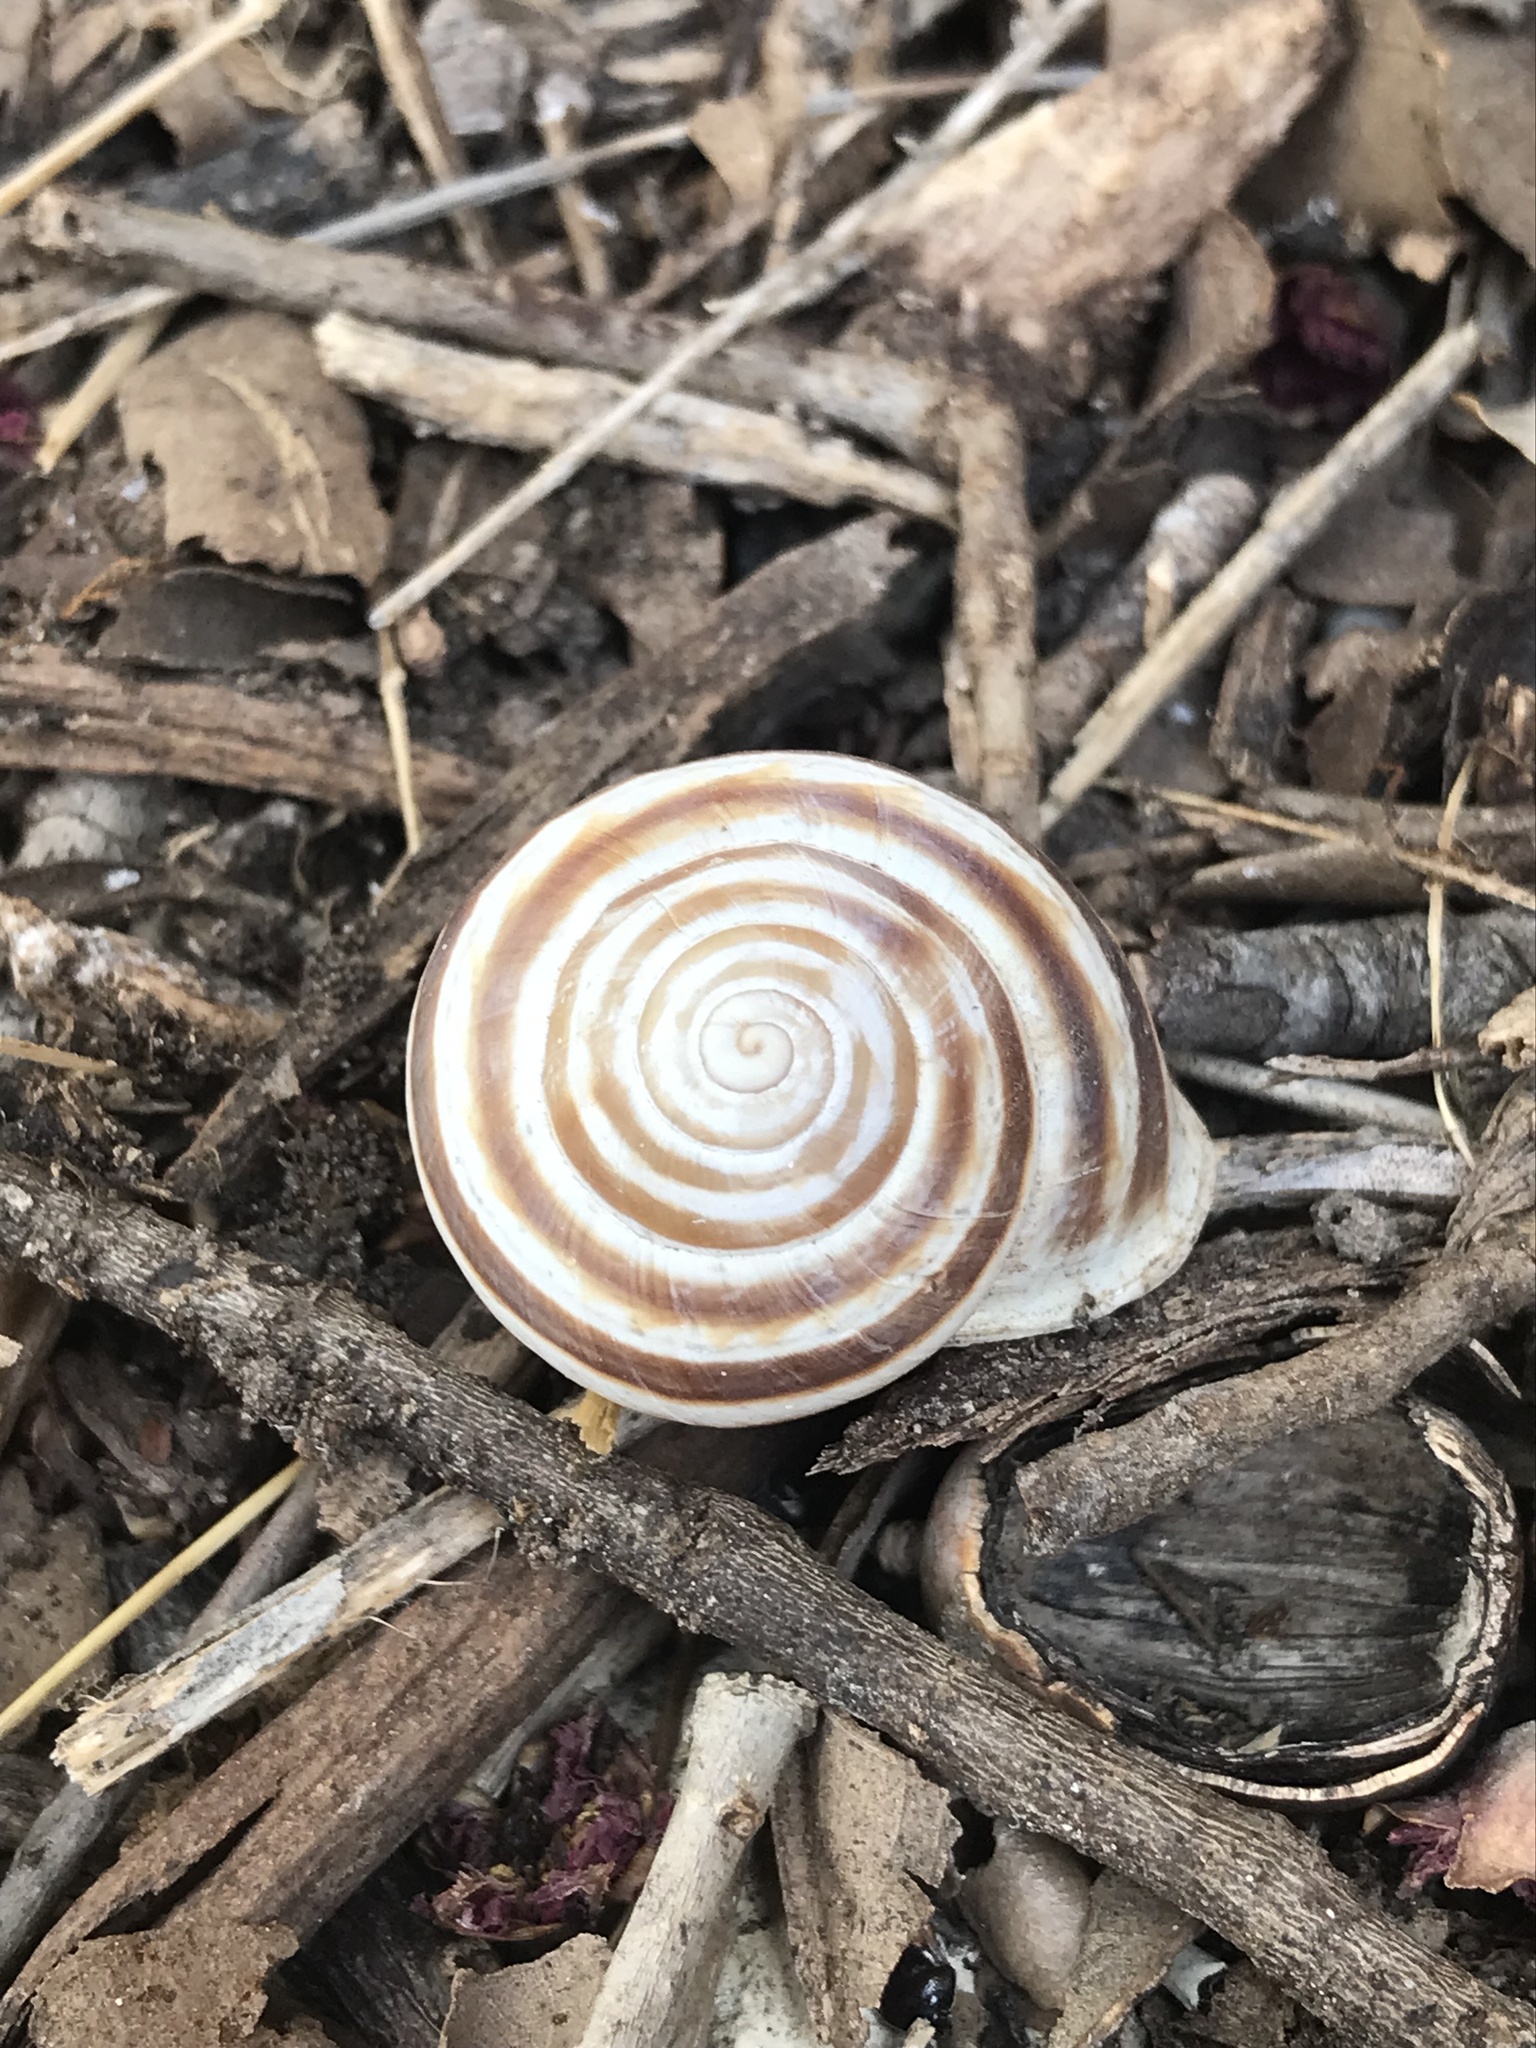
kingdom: Animalia
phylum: Mollusca
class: Gastropoda
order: Stylommatophora
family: Helicidae
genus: Otala
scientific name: Otala lactea
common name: Milk snail
